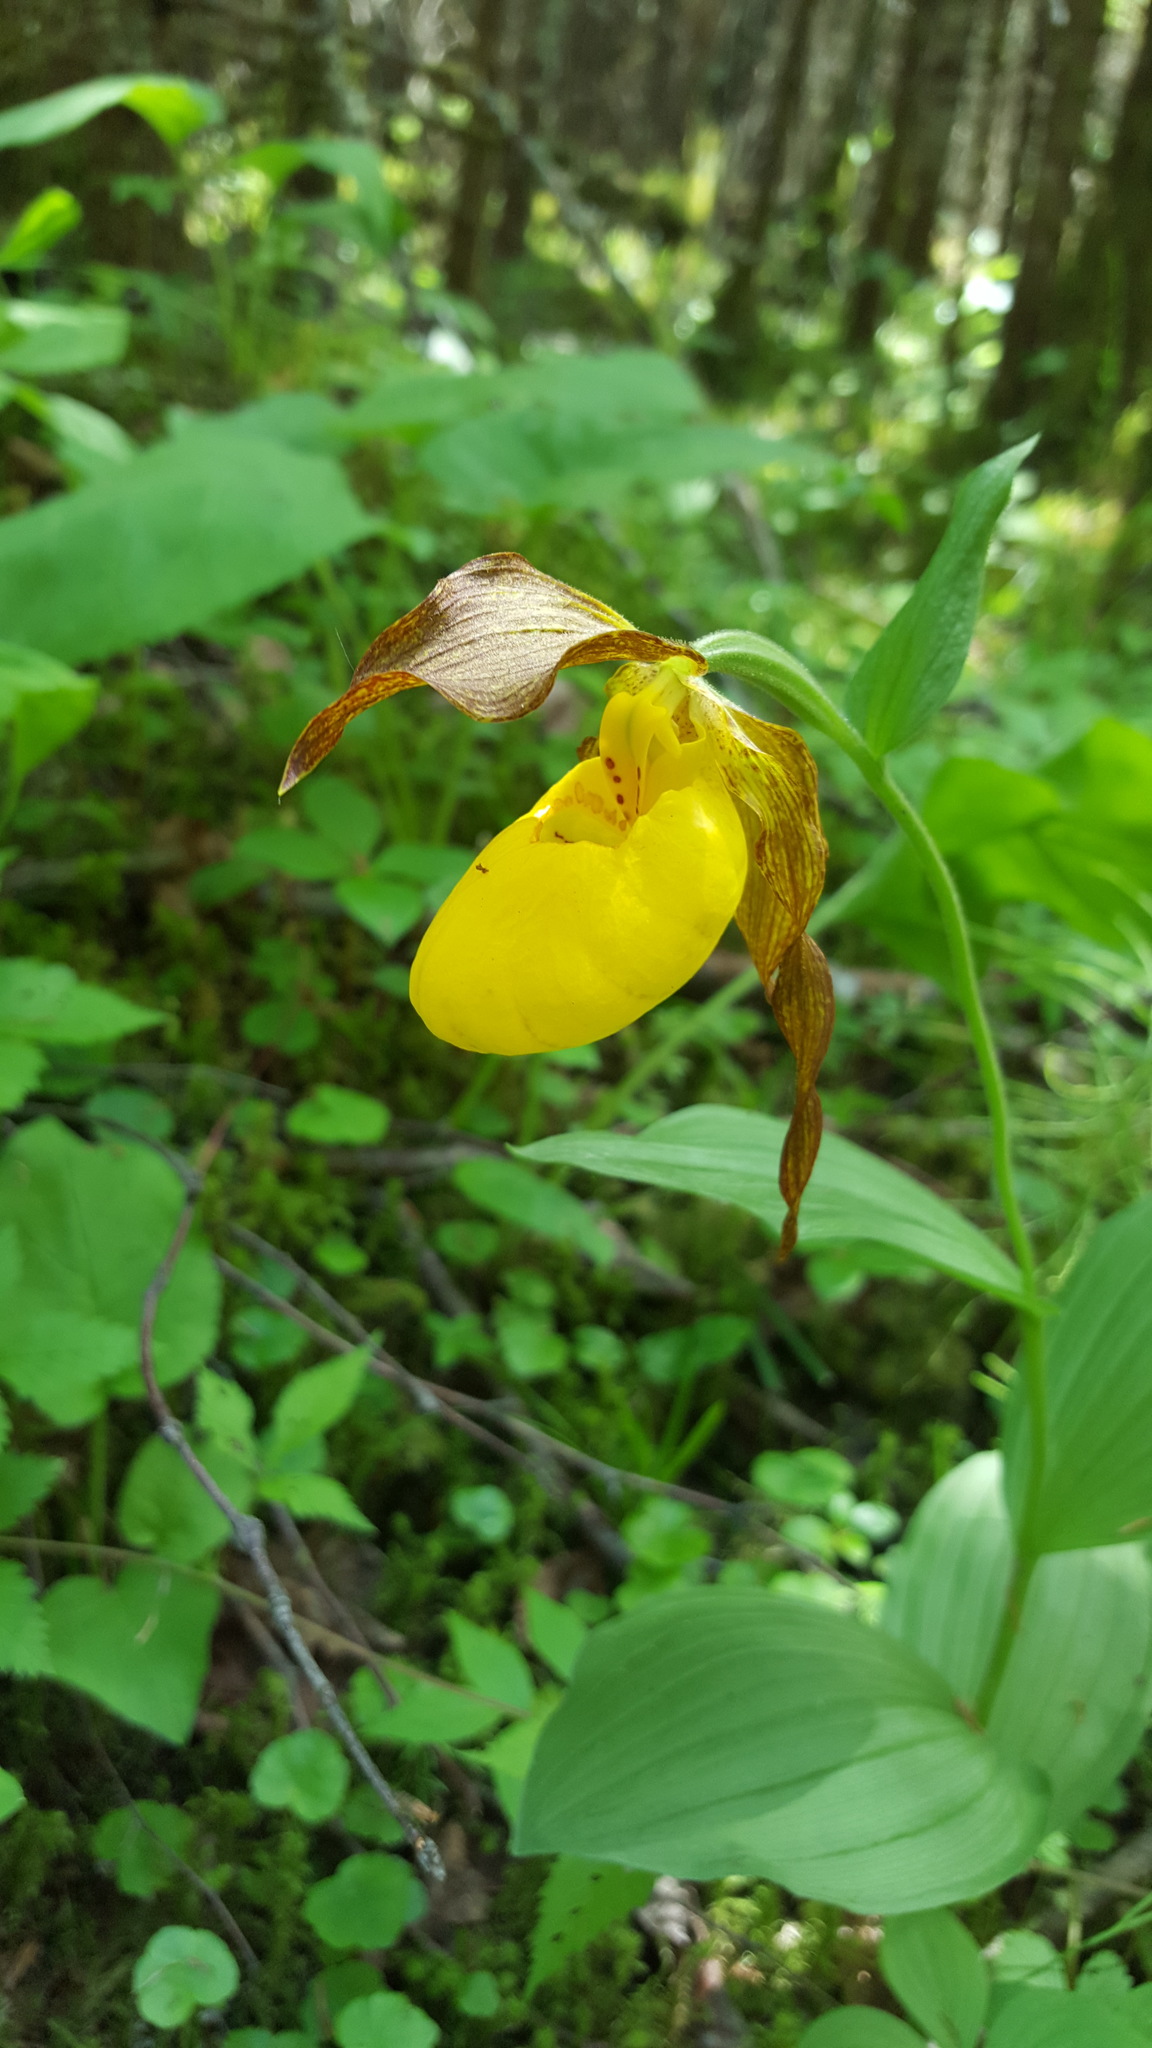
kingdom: Plantae
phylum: Tracheophyta
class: Liliopsida
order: Asparagales
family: Orchidaceae
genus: Cypripedium
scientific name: Cypripedium parviflorum
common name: American yellow lady's-slipper
